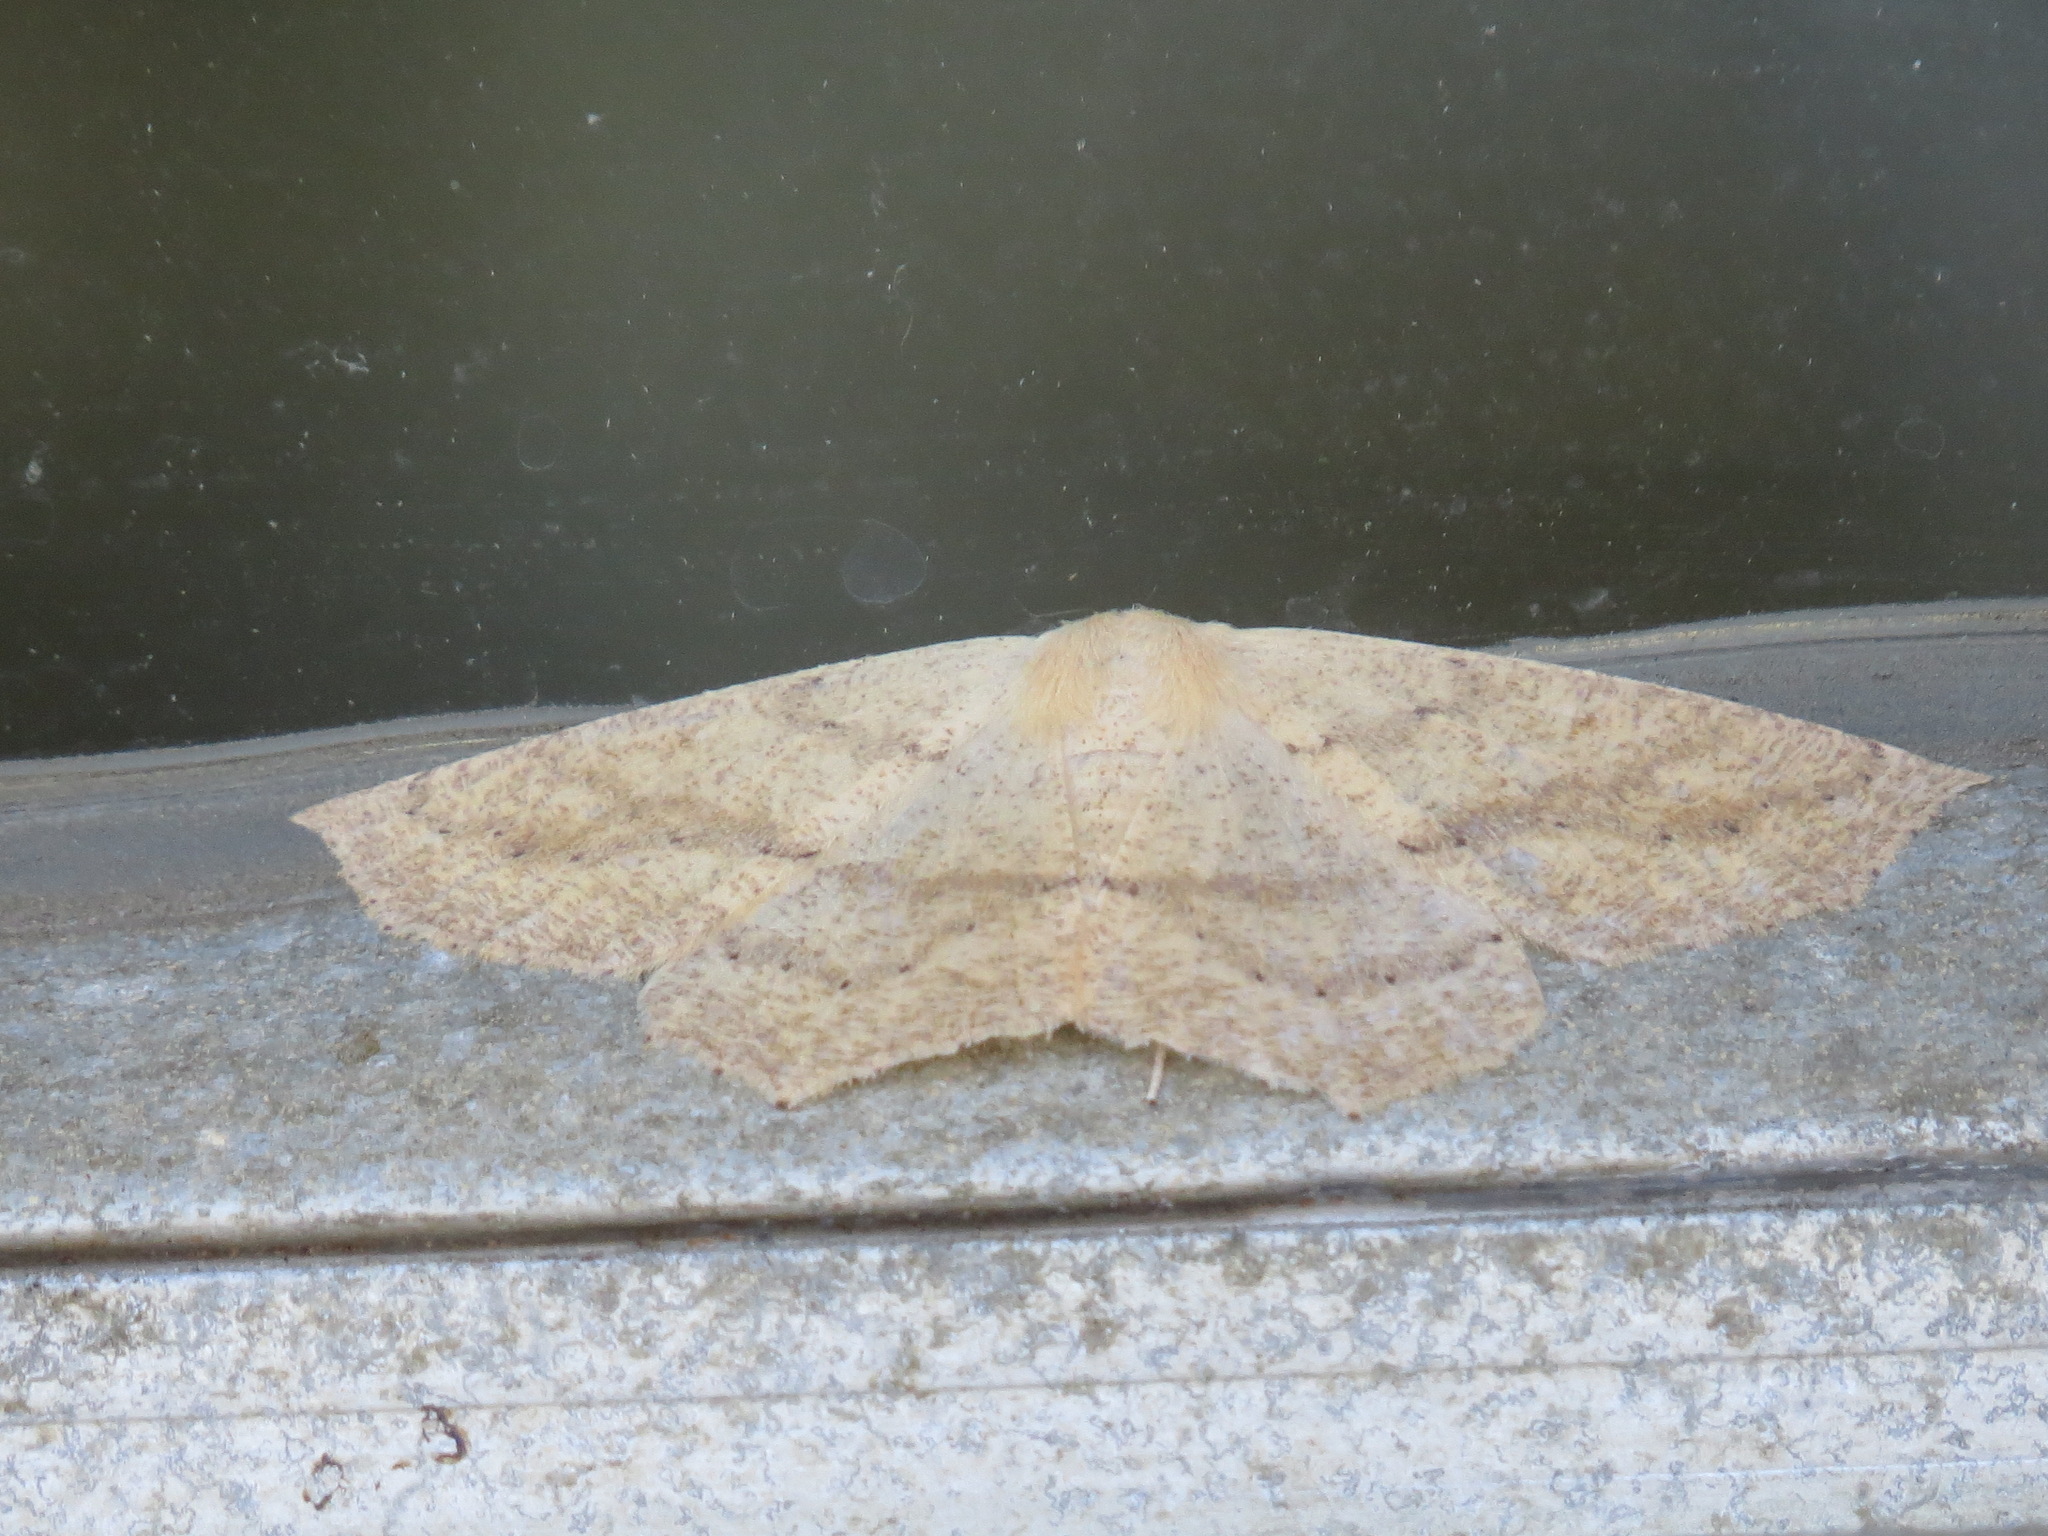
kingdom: Animalia
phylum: Arthropoda
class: Insecta
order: Lepidoptera
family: Geometridae
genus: Sabulodes
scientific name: Sabulodes aegrotata
